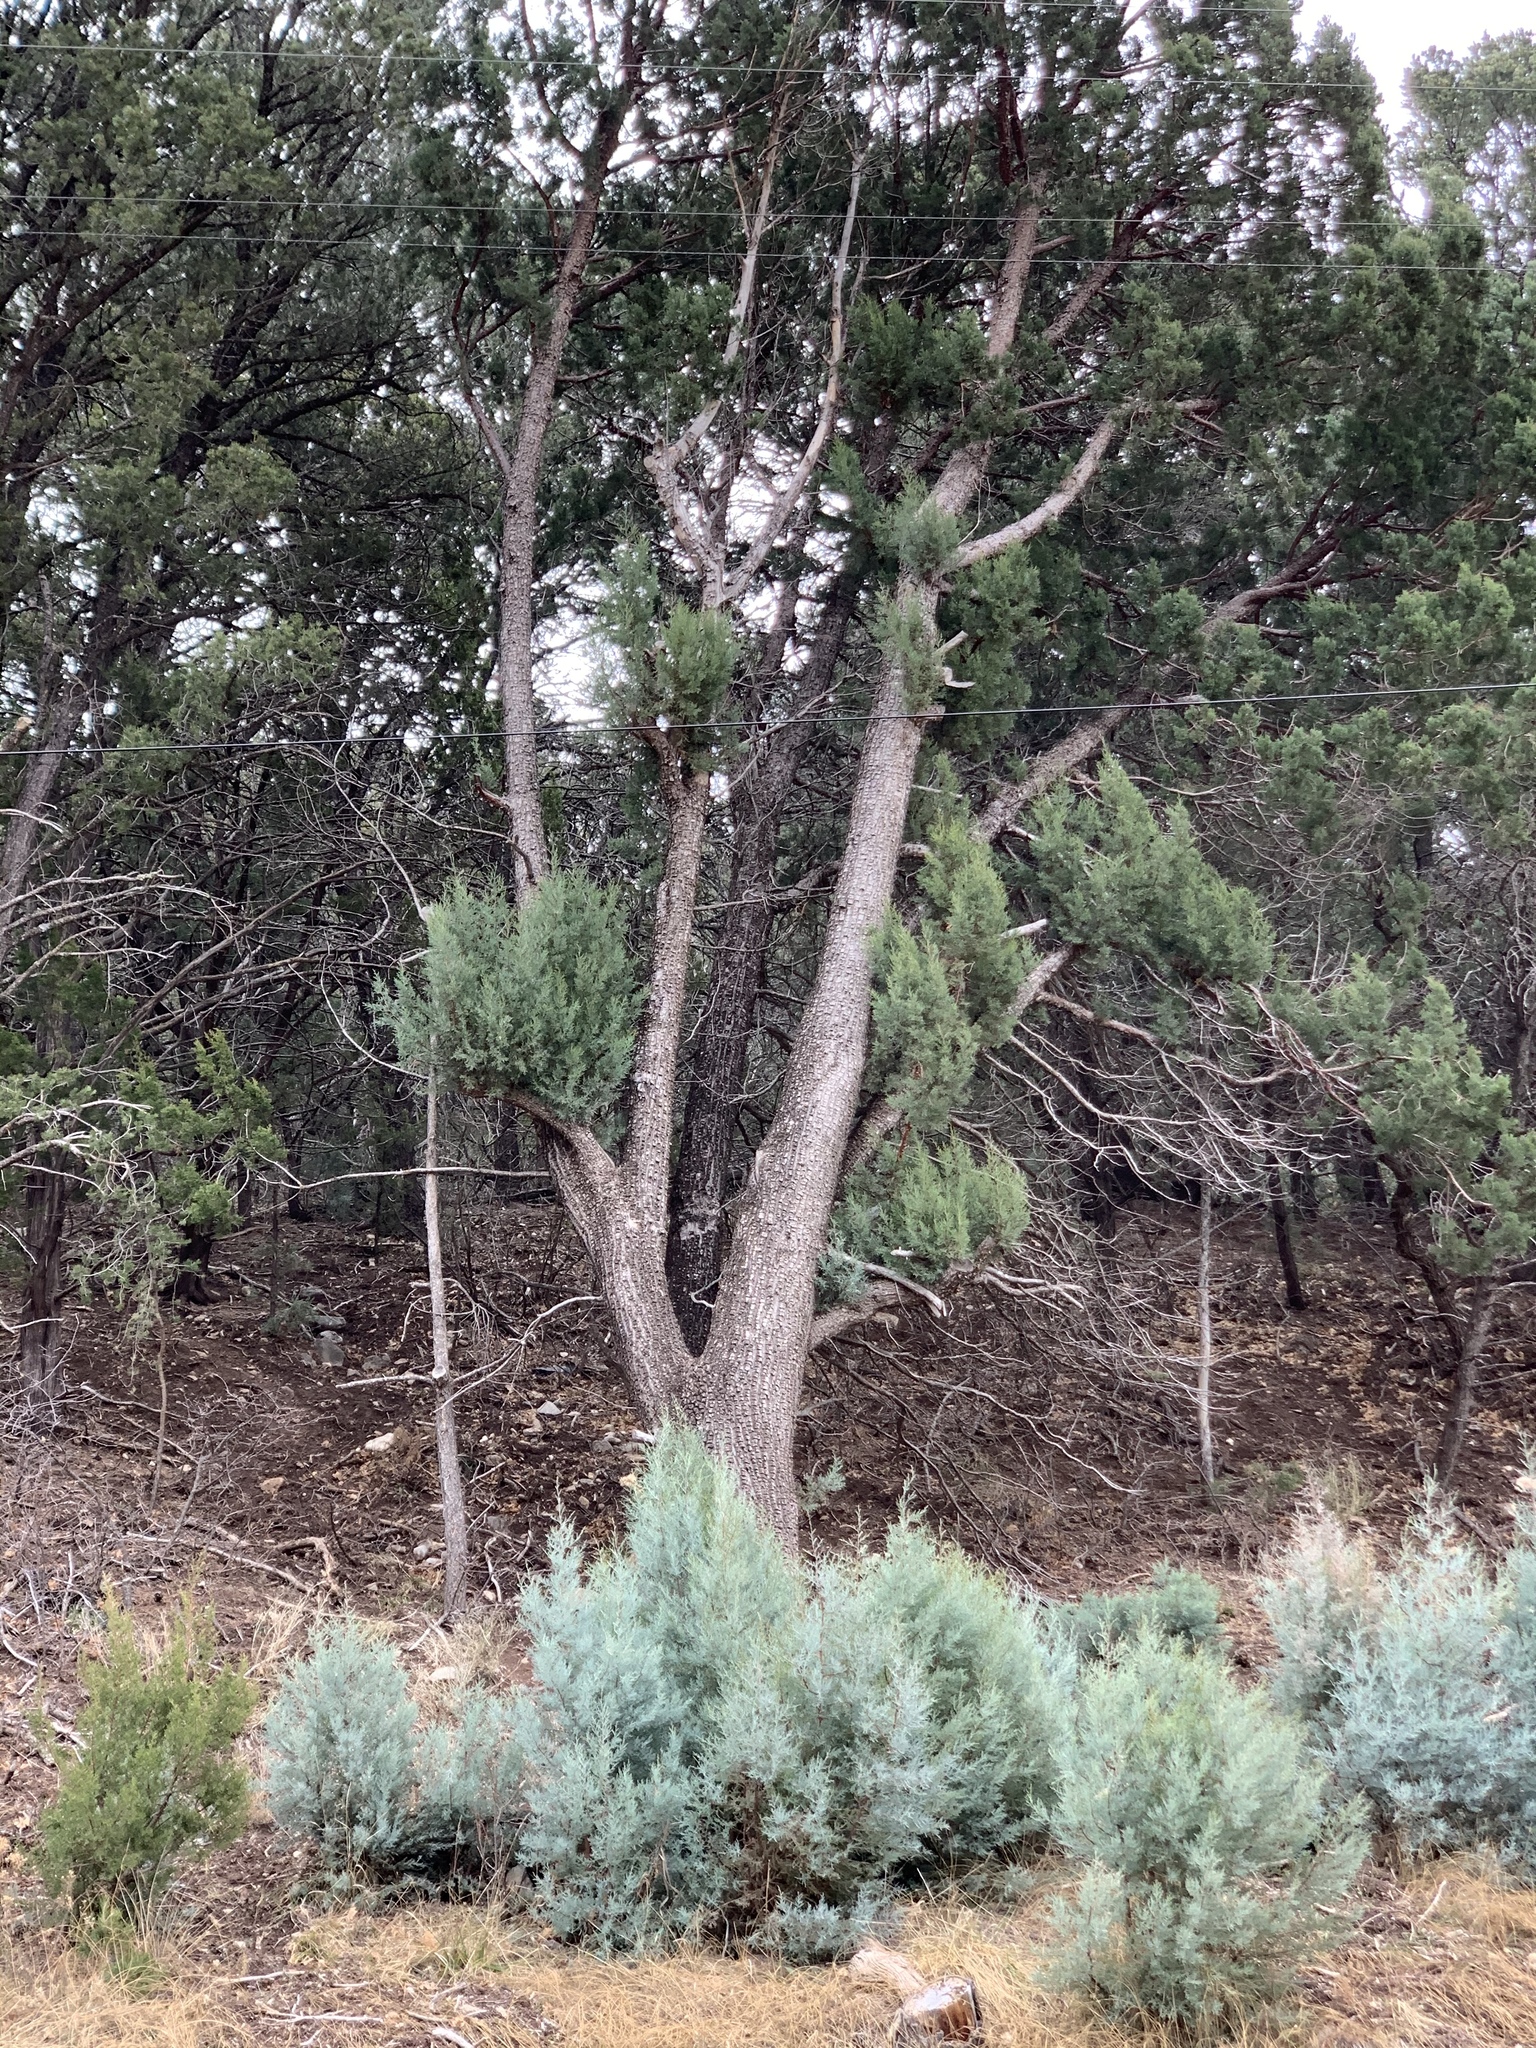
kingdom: Plantae
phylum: Tracheophyta
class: Pinopsida
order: Pinales
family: Cupressaceae
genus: Juniperus
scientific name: Juniperus deppeana
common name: Alligator juniper
